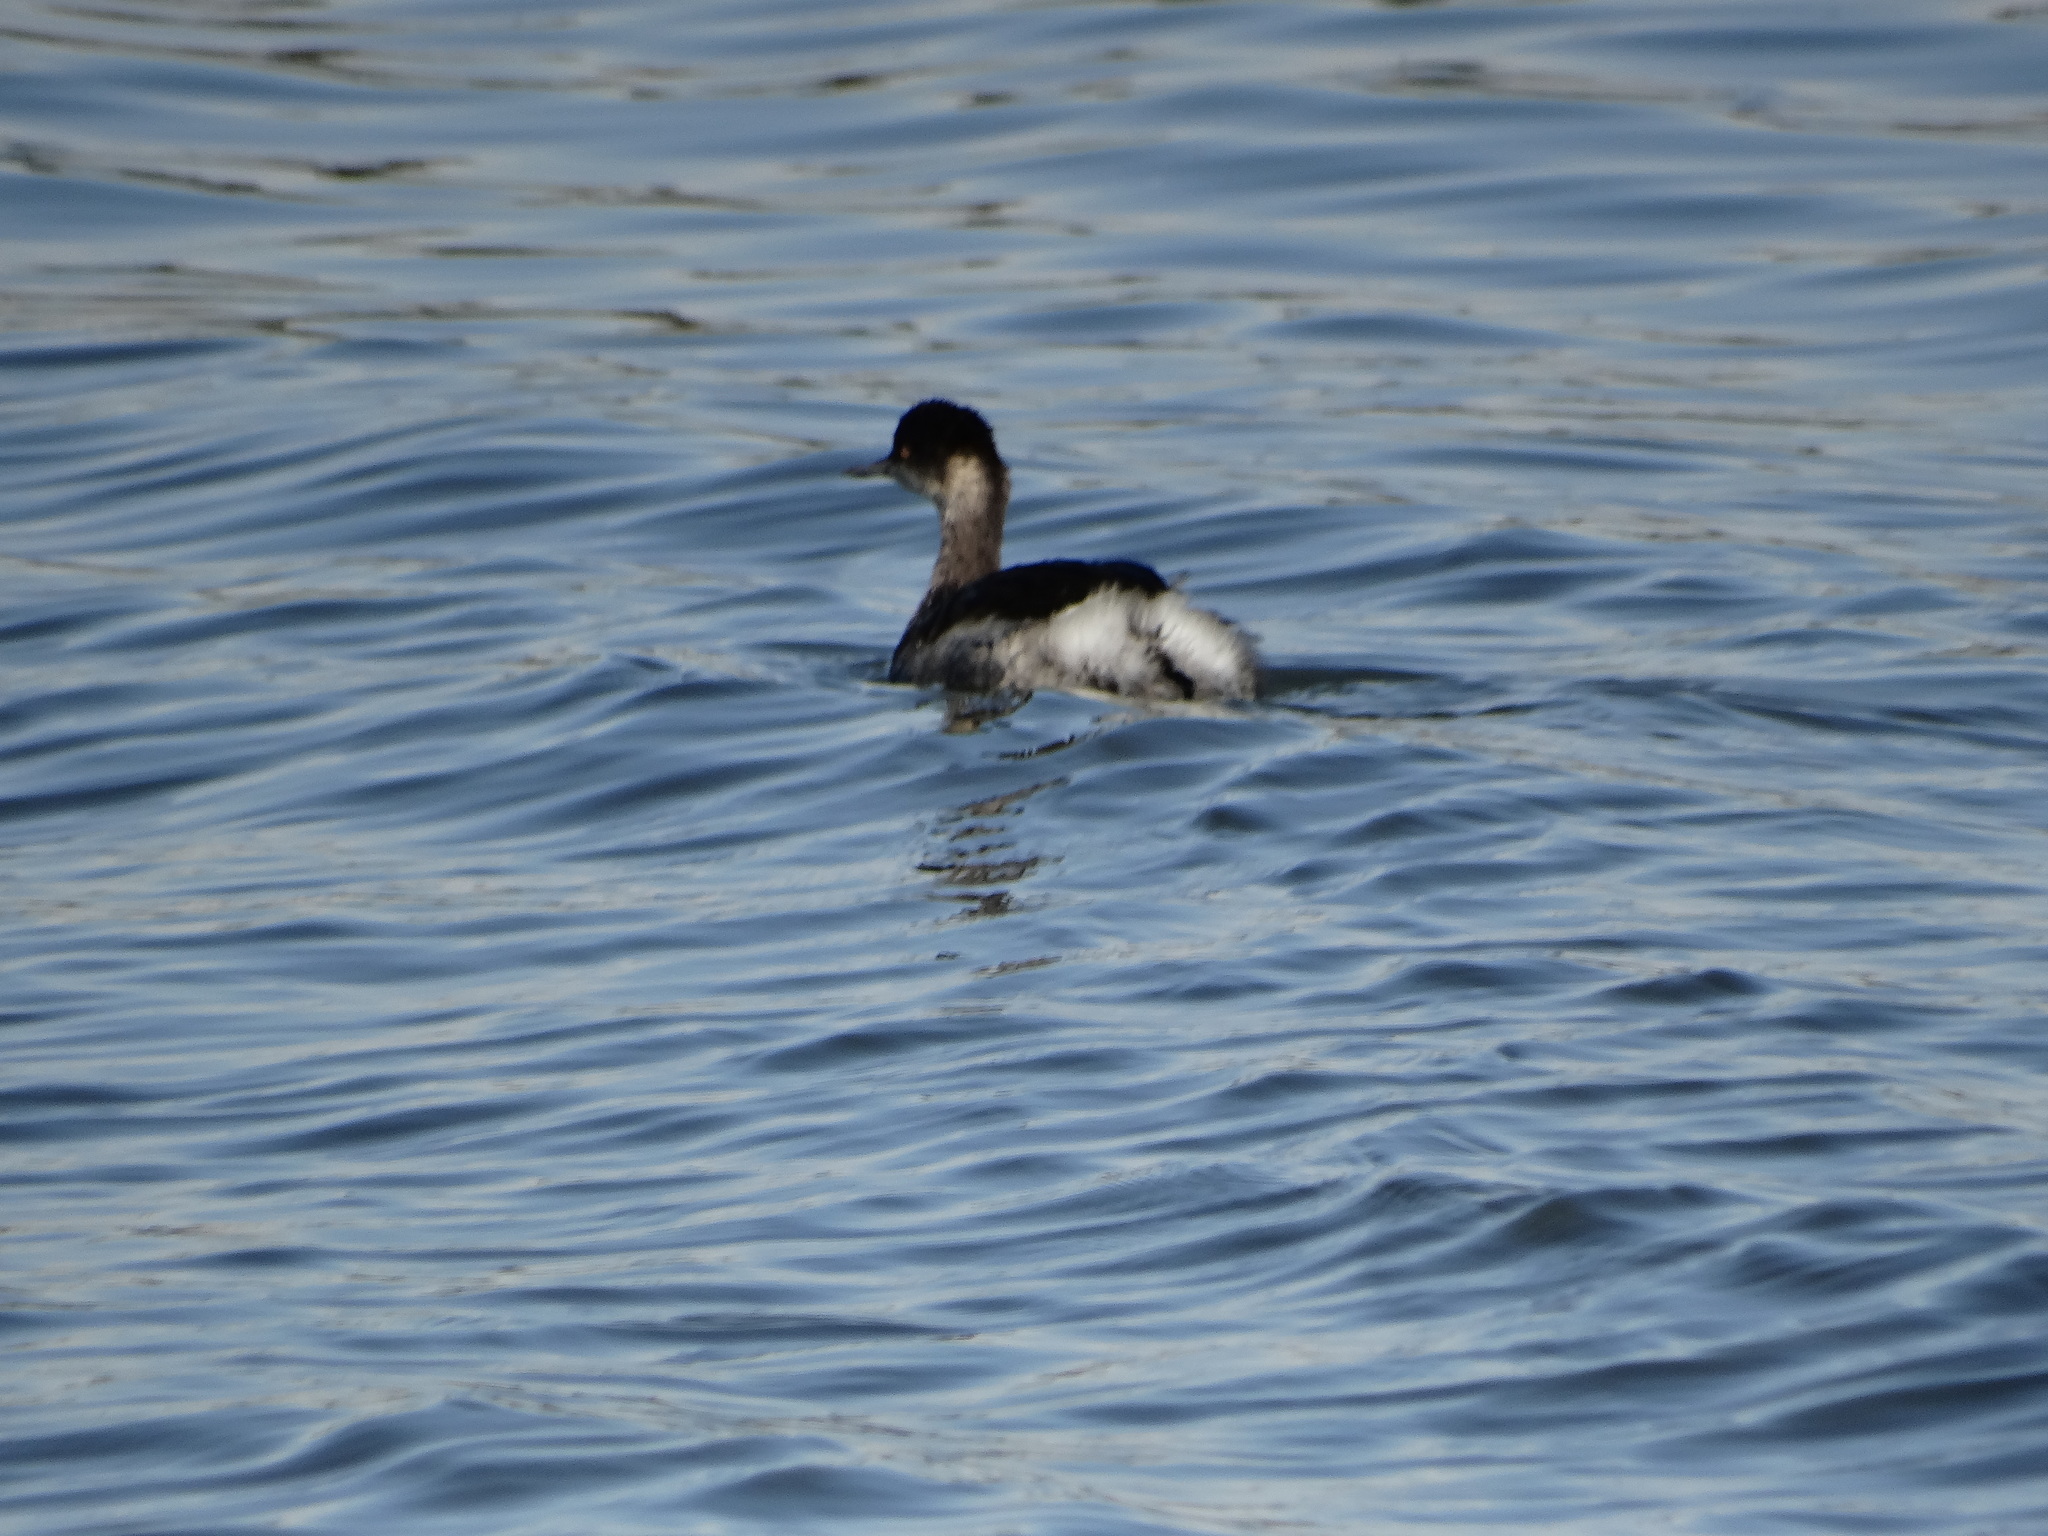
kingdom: Animalia
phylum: Chordata
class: Aves
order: Podicipediformes
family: Podicipedidae
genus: Podiceps
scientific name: Podiceps nigricollis
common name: Black-necked grebe
